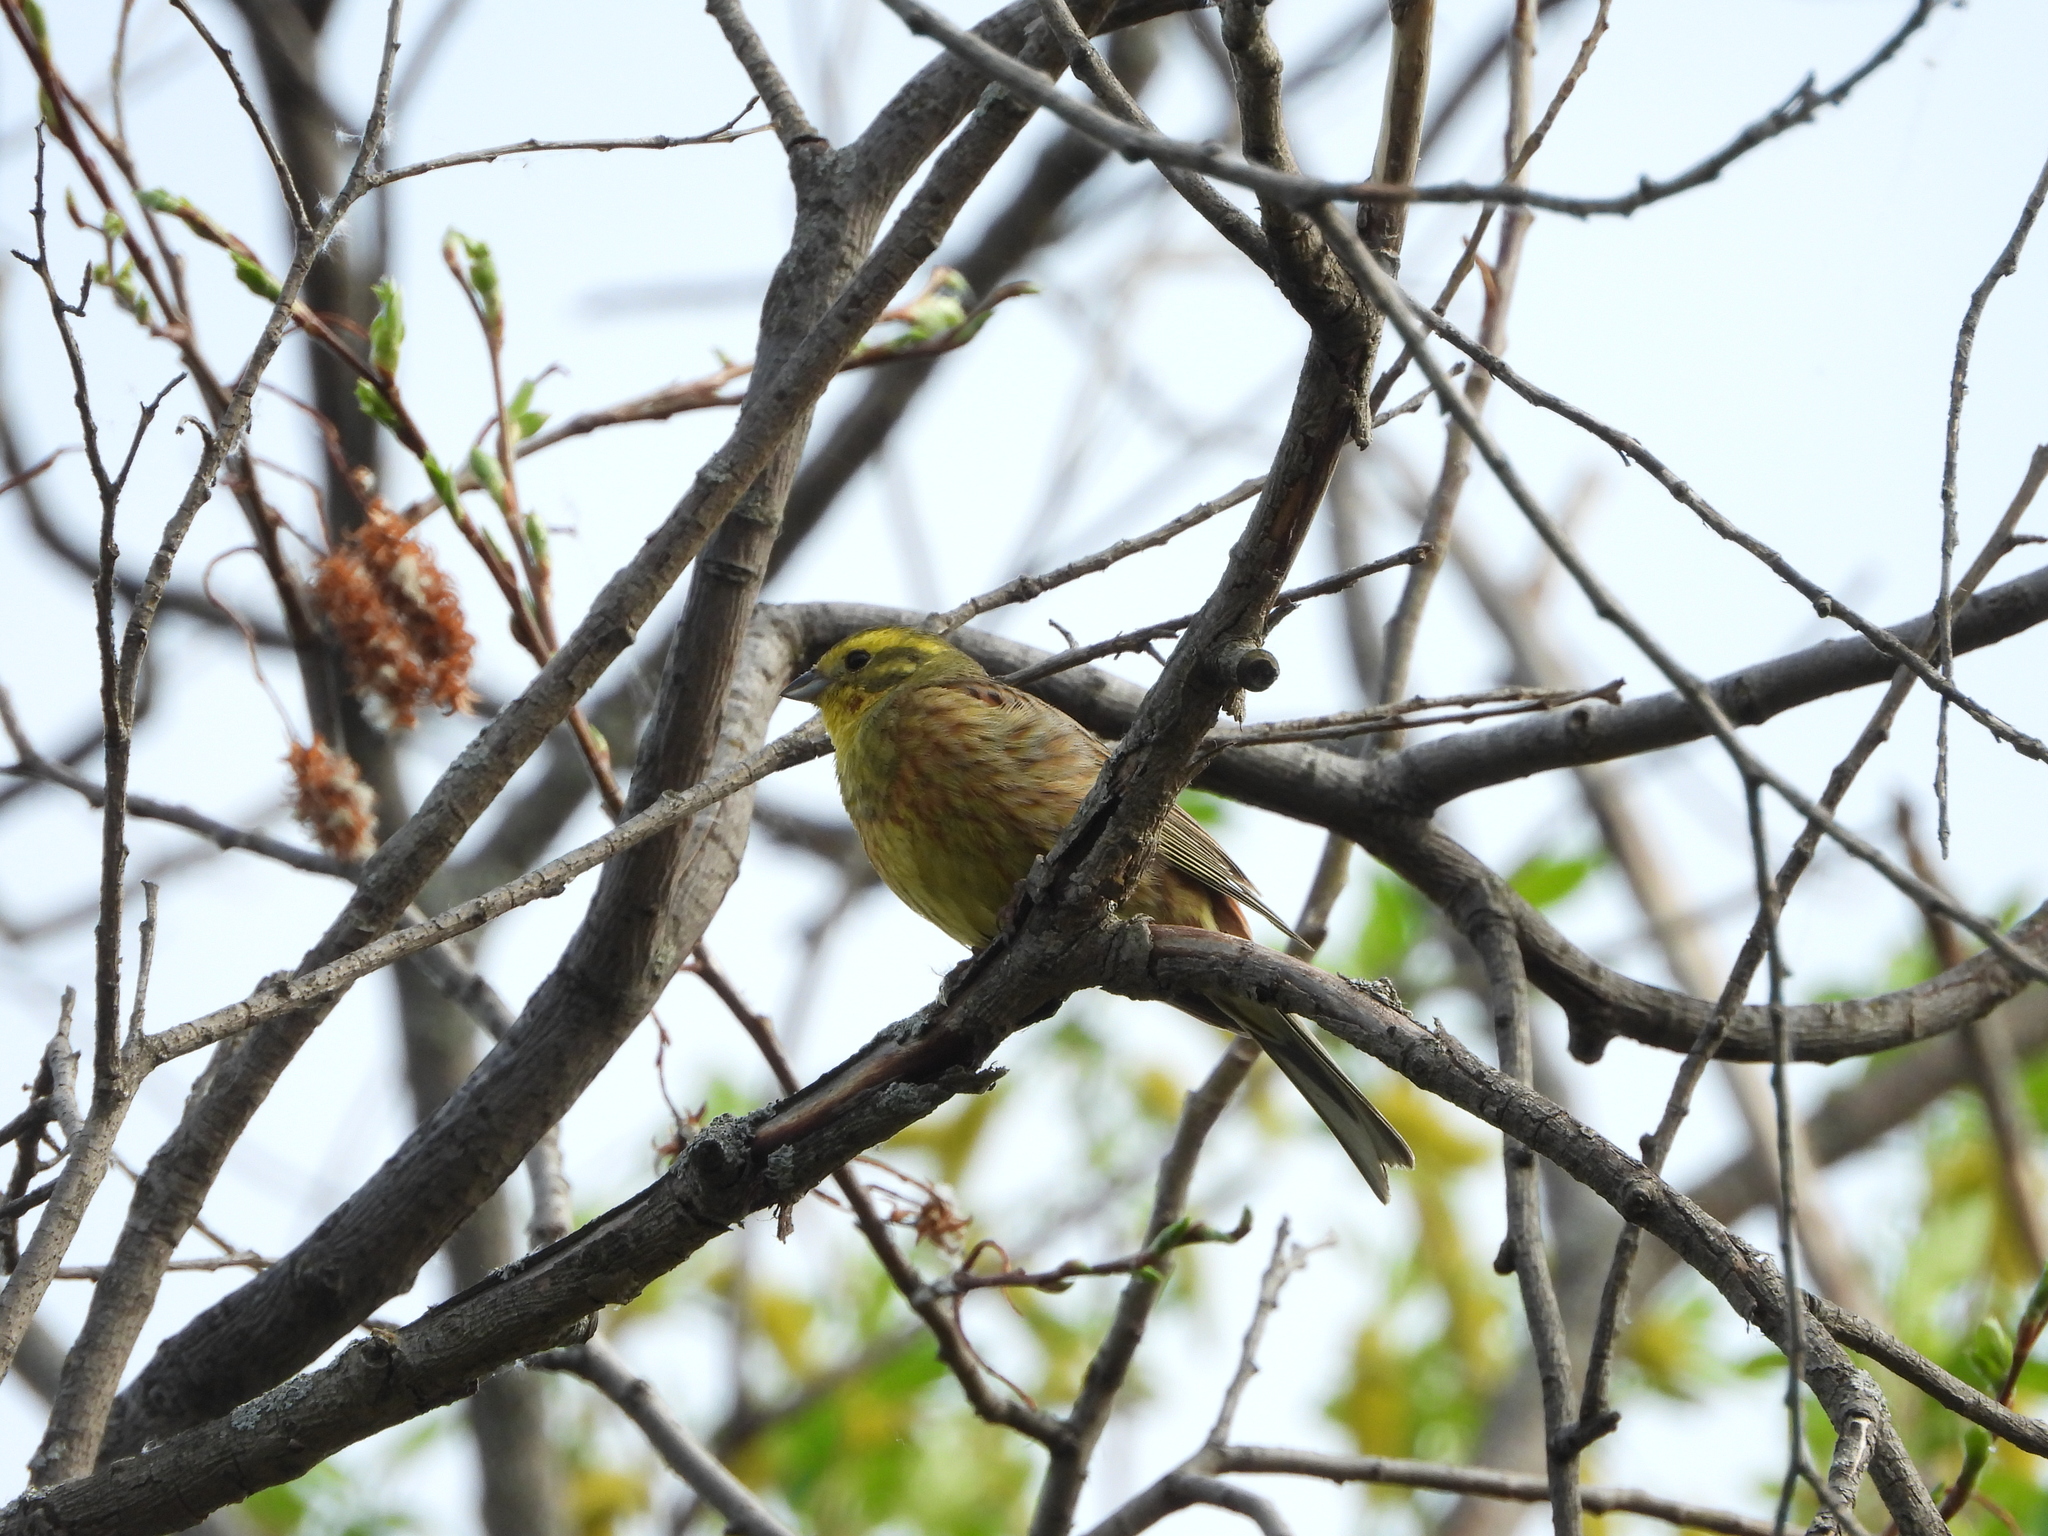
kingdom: Animalia
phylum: Chordata
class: Aves
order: Passeriformes
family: Emberizidae
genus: Emberiza
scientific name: Emberiza citrinella
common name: Yellowhammer
